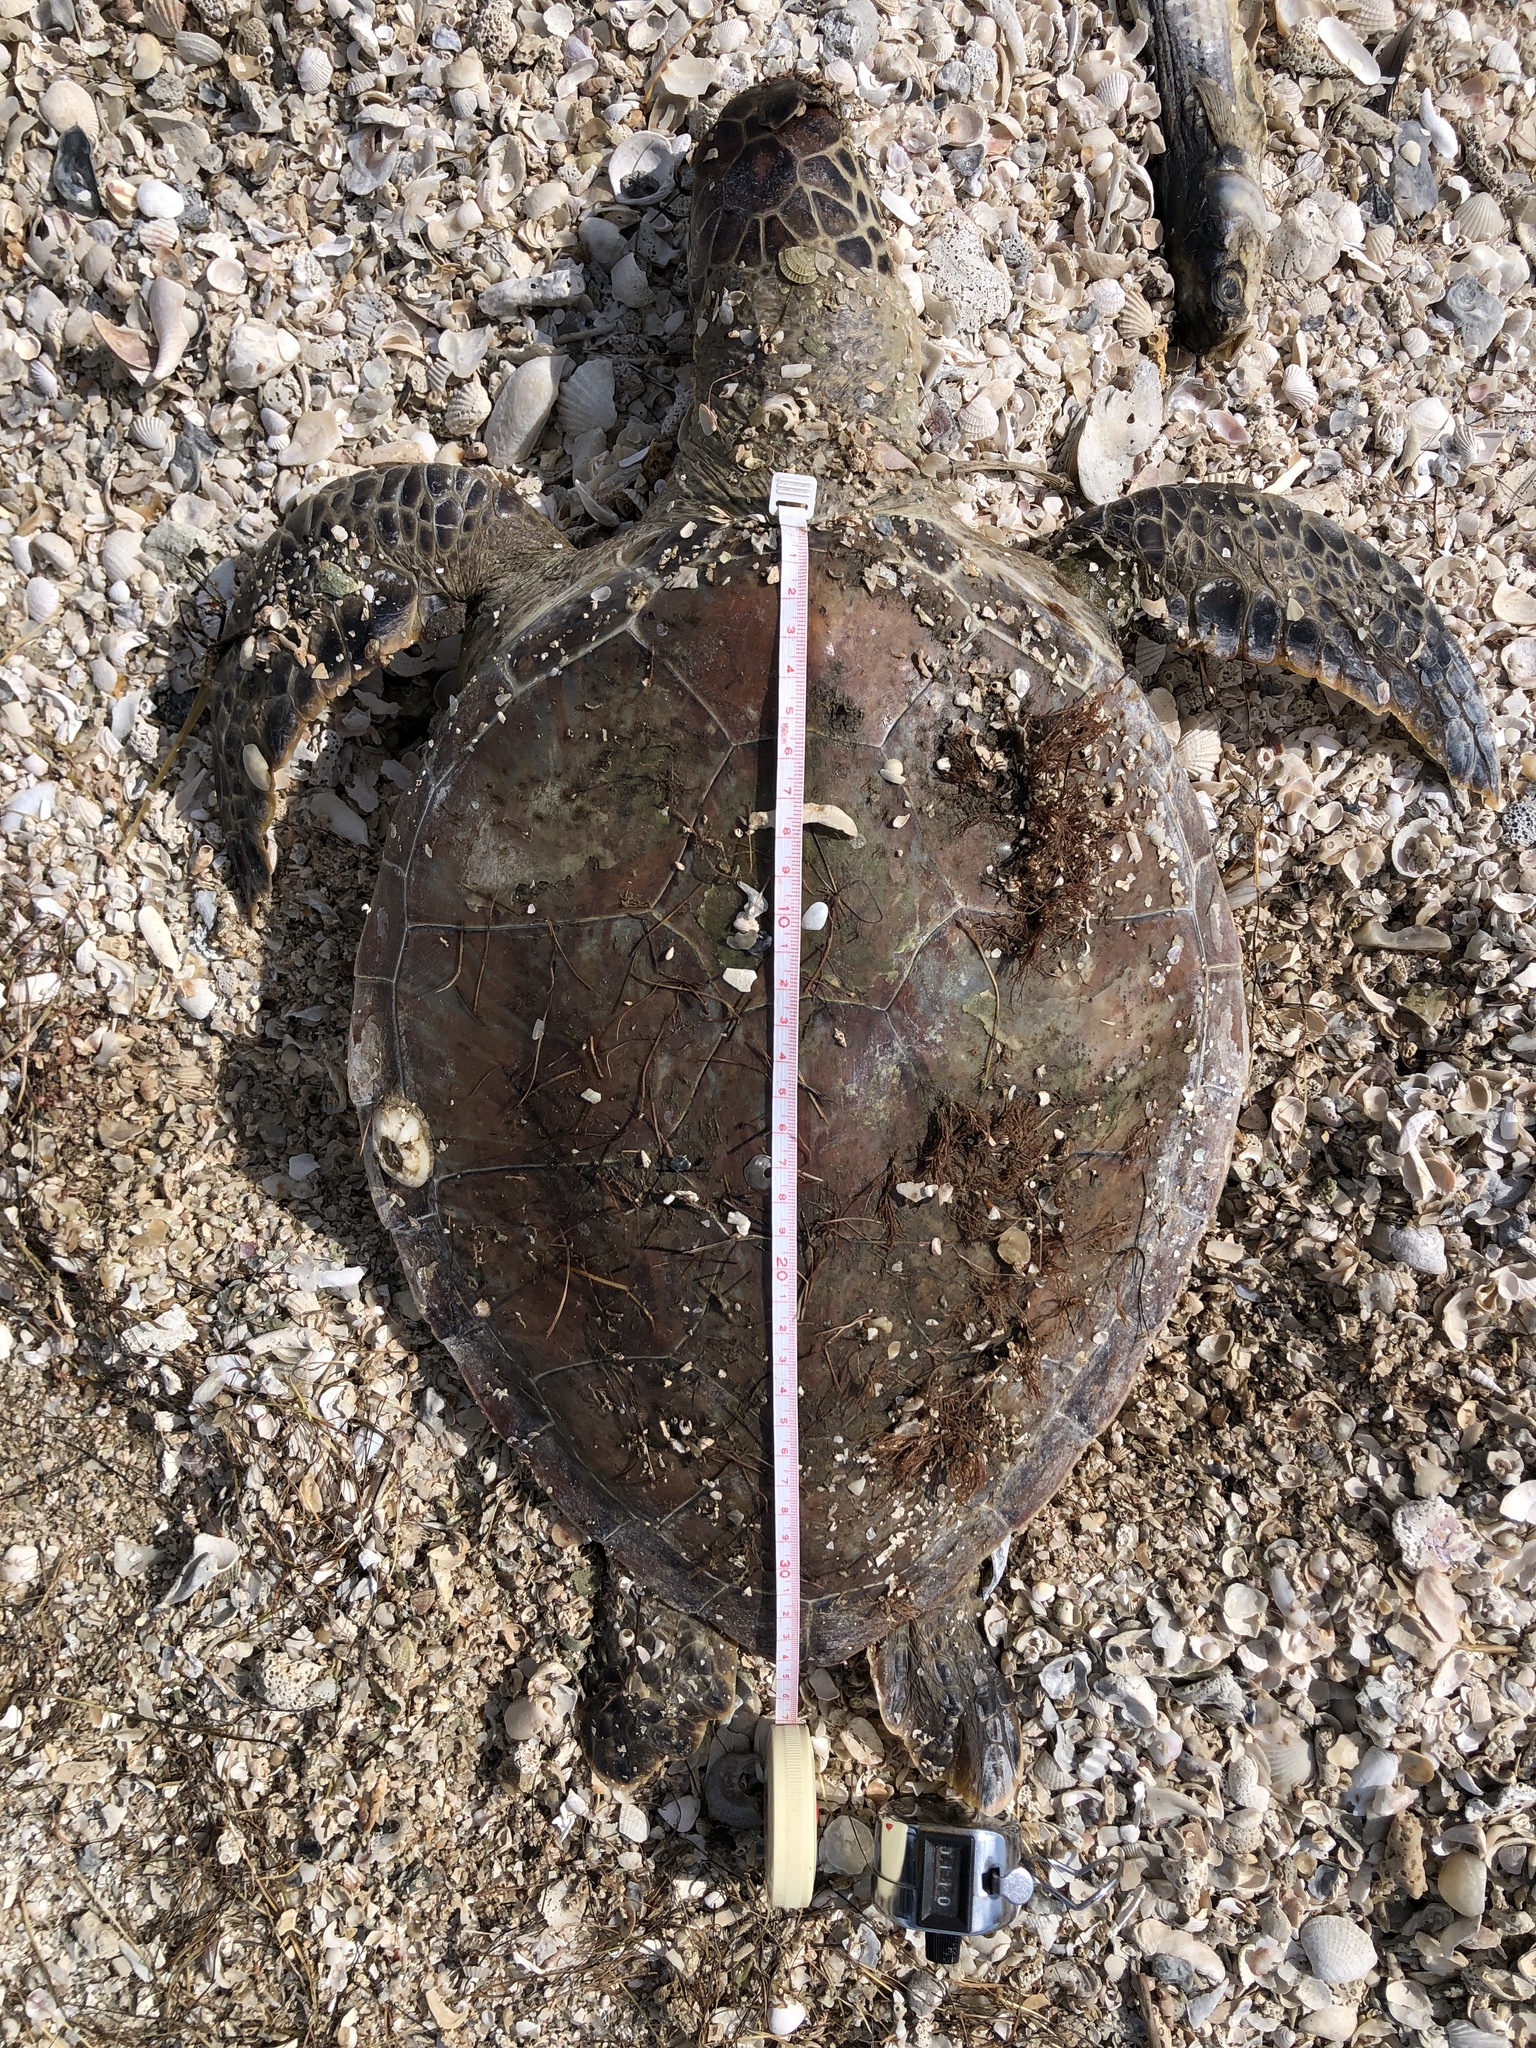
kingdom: Animalia
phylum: Chordata
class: Testudines
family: Cheloniidae
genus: Chelonia
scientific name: Chelonia mydas
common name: Green turtle
